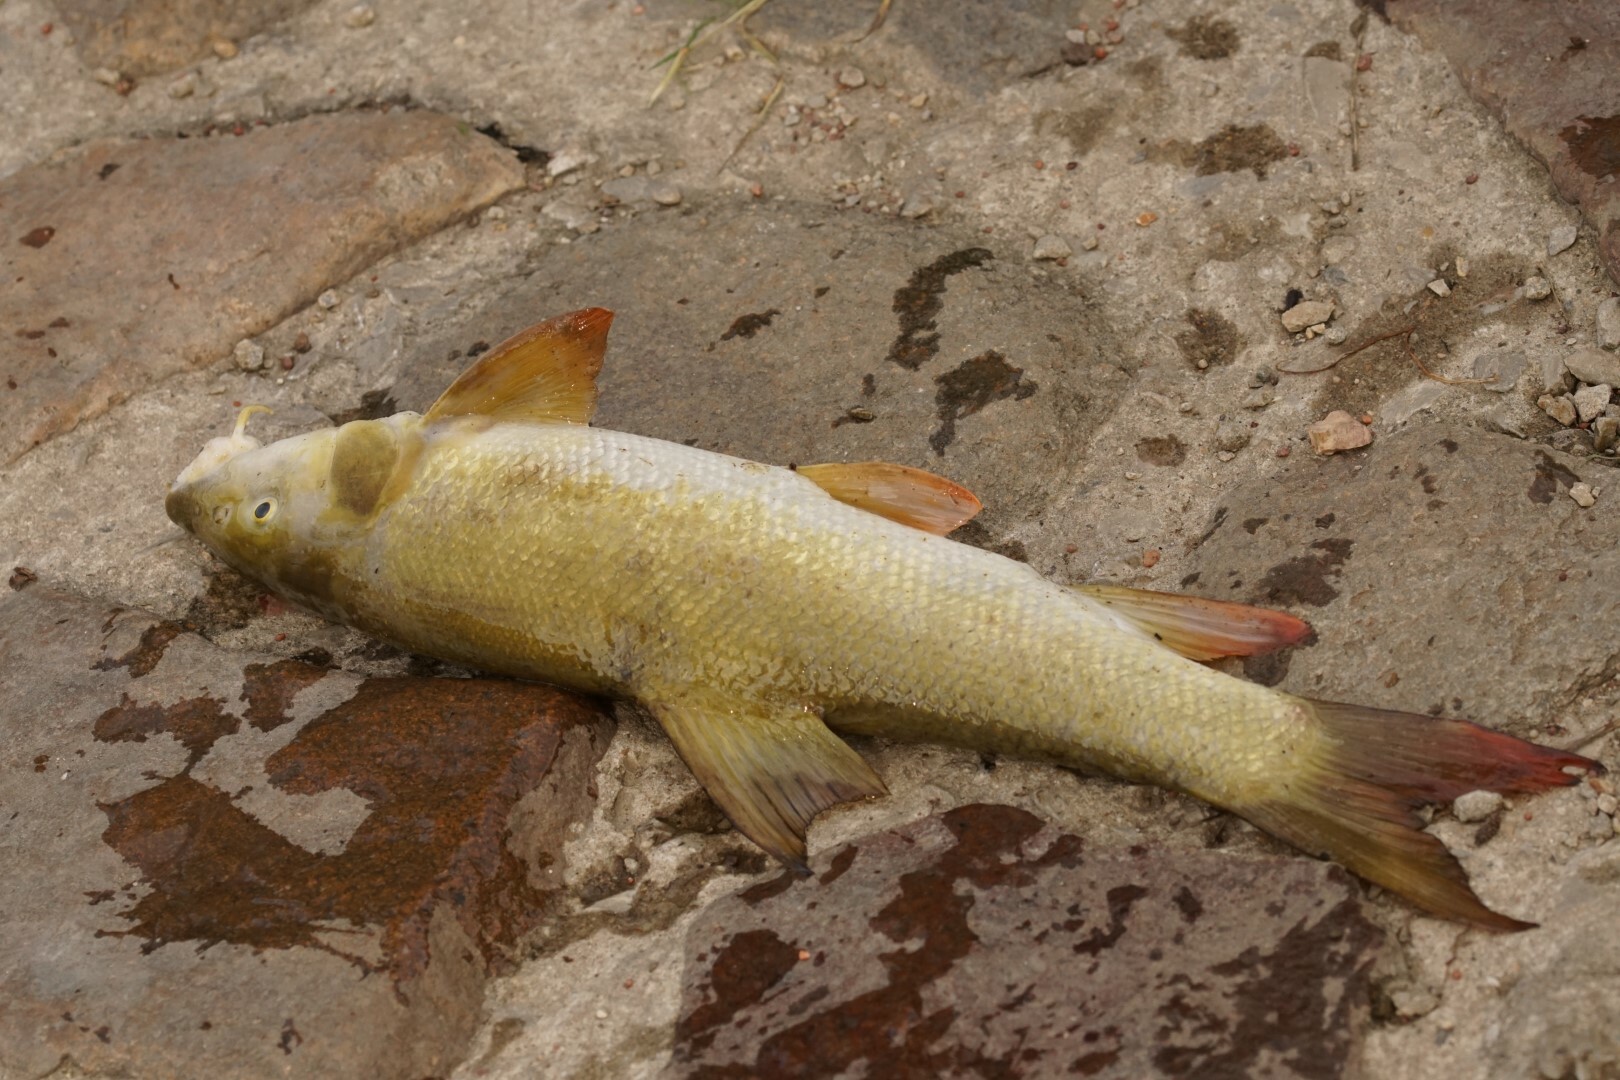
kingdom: Animalia
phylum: Chordata
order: Cypriniformes
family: Cyprinidae
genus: Barbus
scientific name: Barbus barbus
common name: Barbel
